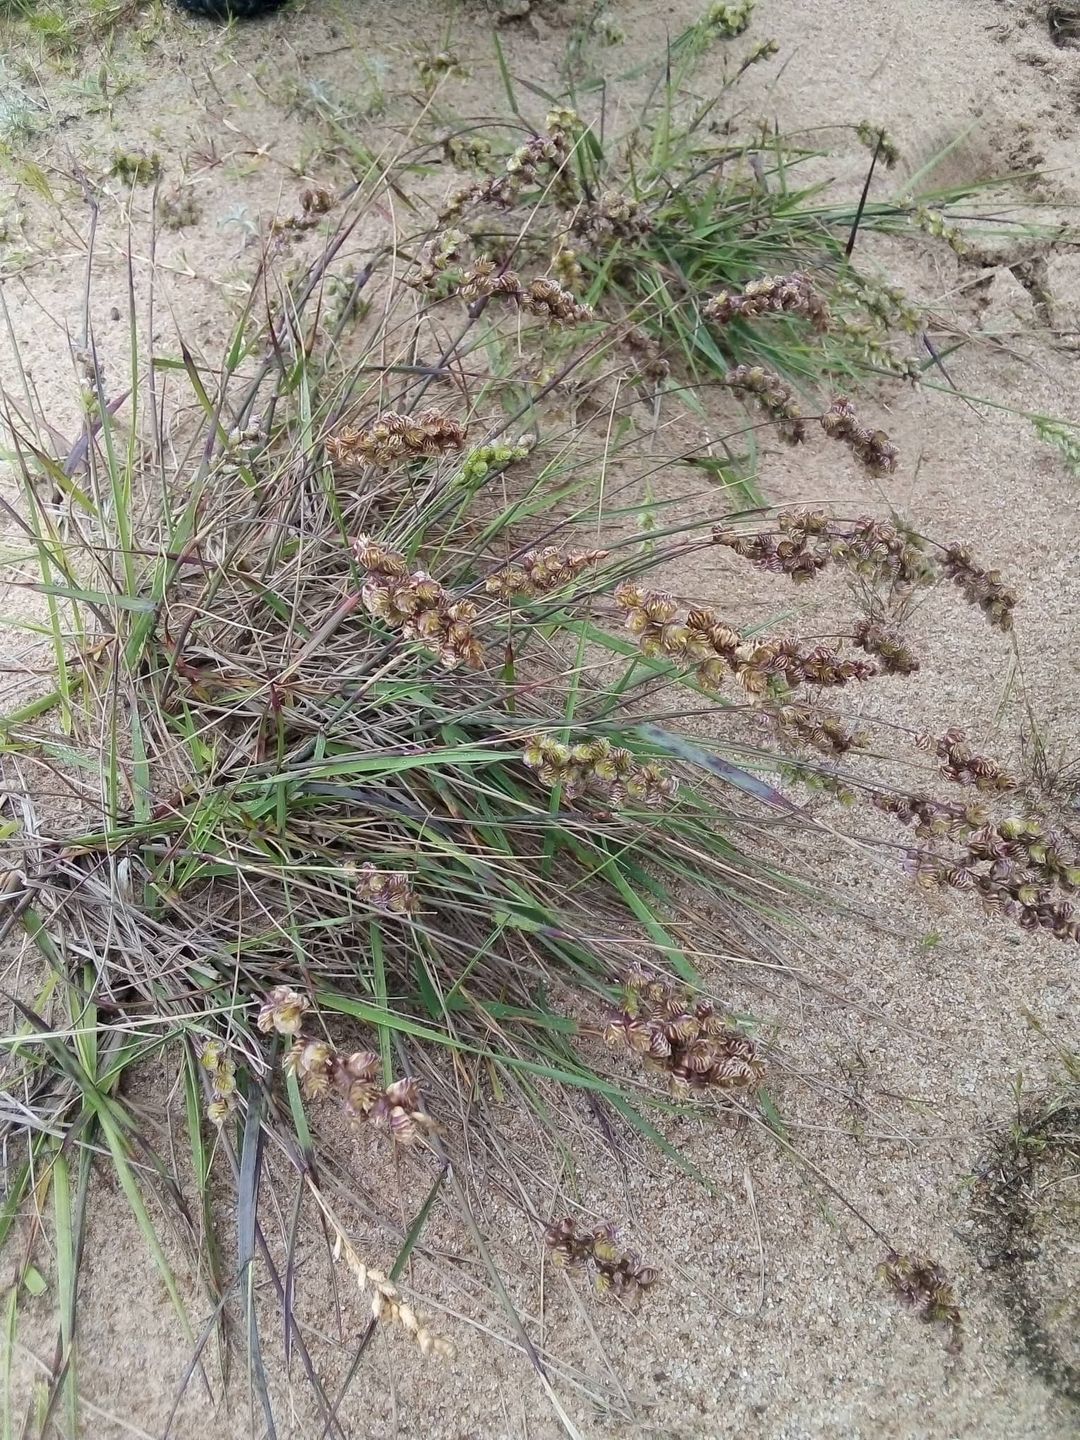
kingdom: Plantae
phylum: Tracheophyta
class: Liliopsida
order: Poales
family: Poaceae
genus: Chascolytrum
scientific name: Chascolytrum subaristatum
